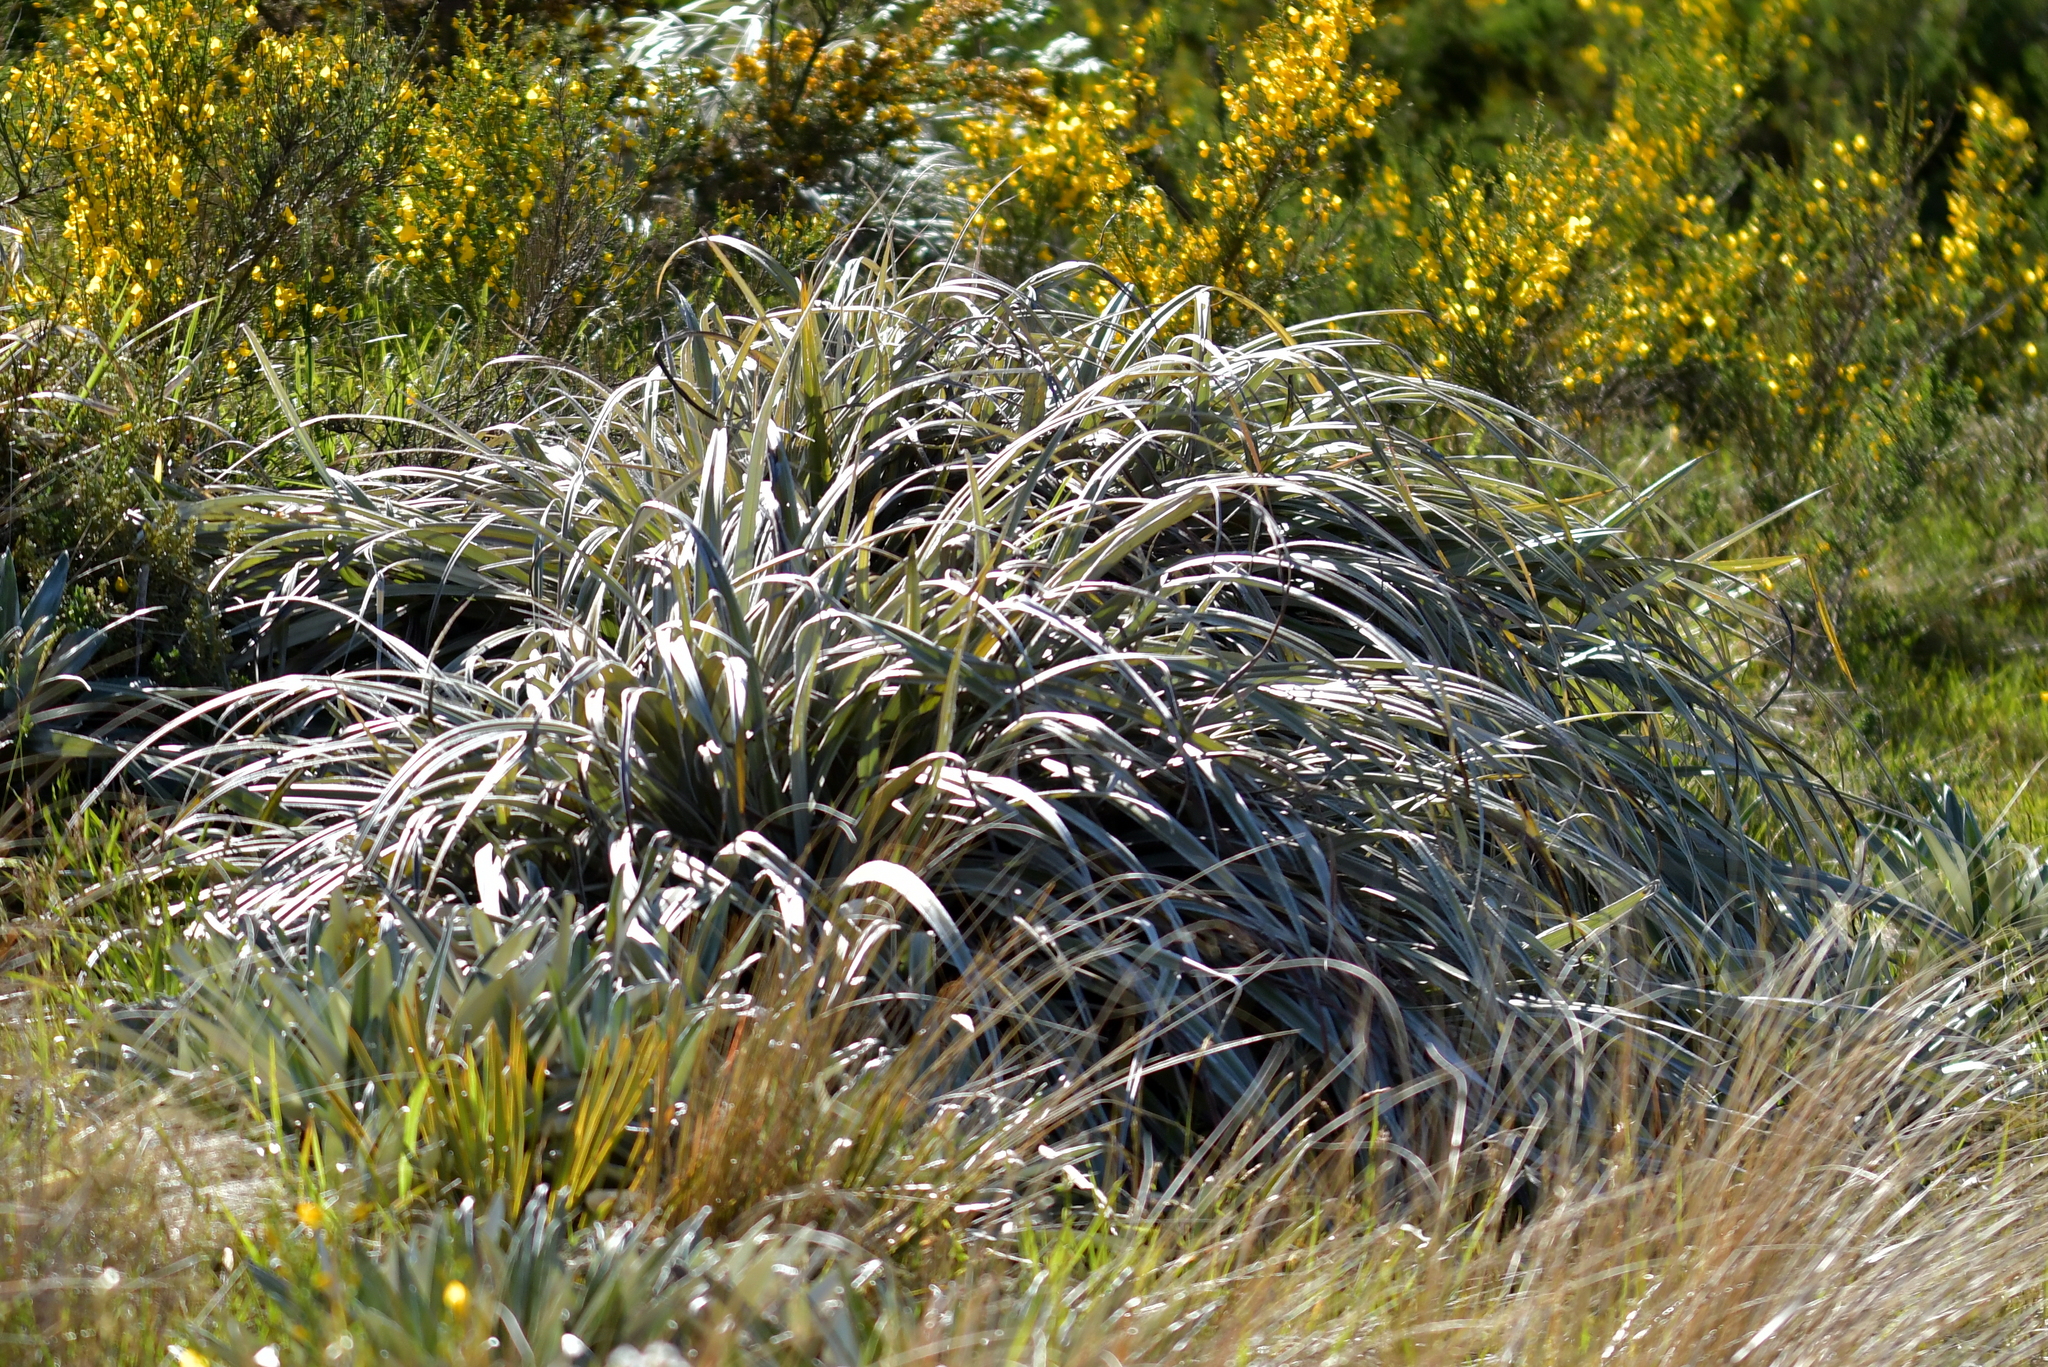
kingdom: Plantae
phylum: Tracheophyta
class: Liliopsida
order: Asparagales
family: Asteliaceae
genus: Astelia
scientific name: Astelia nervosa
